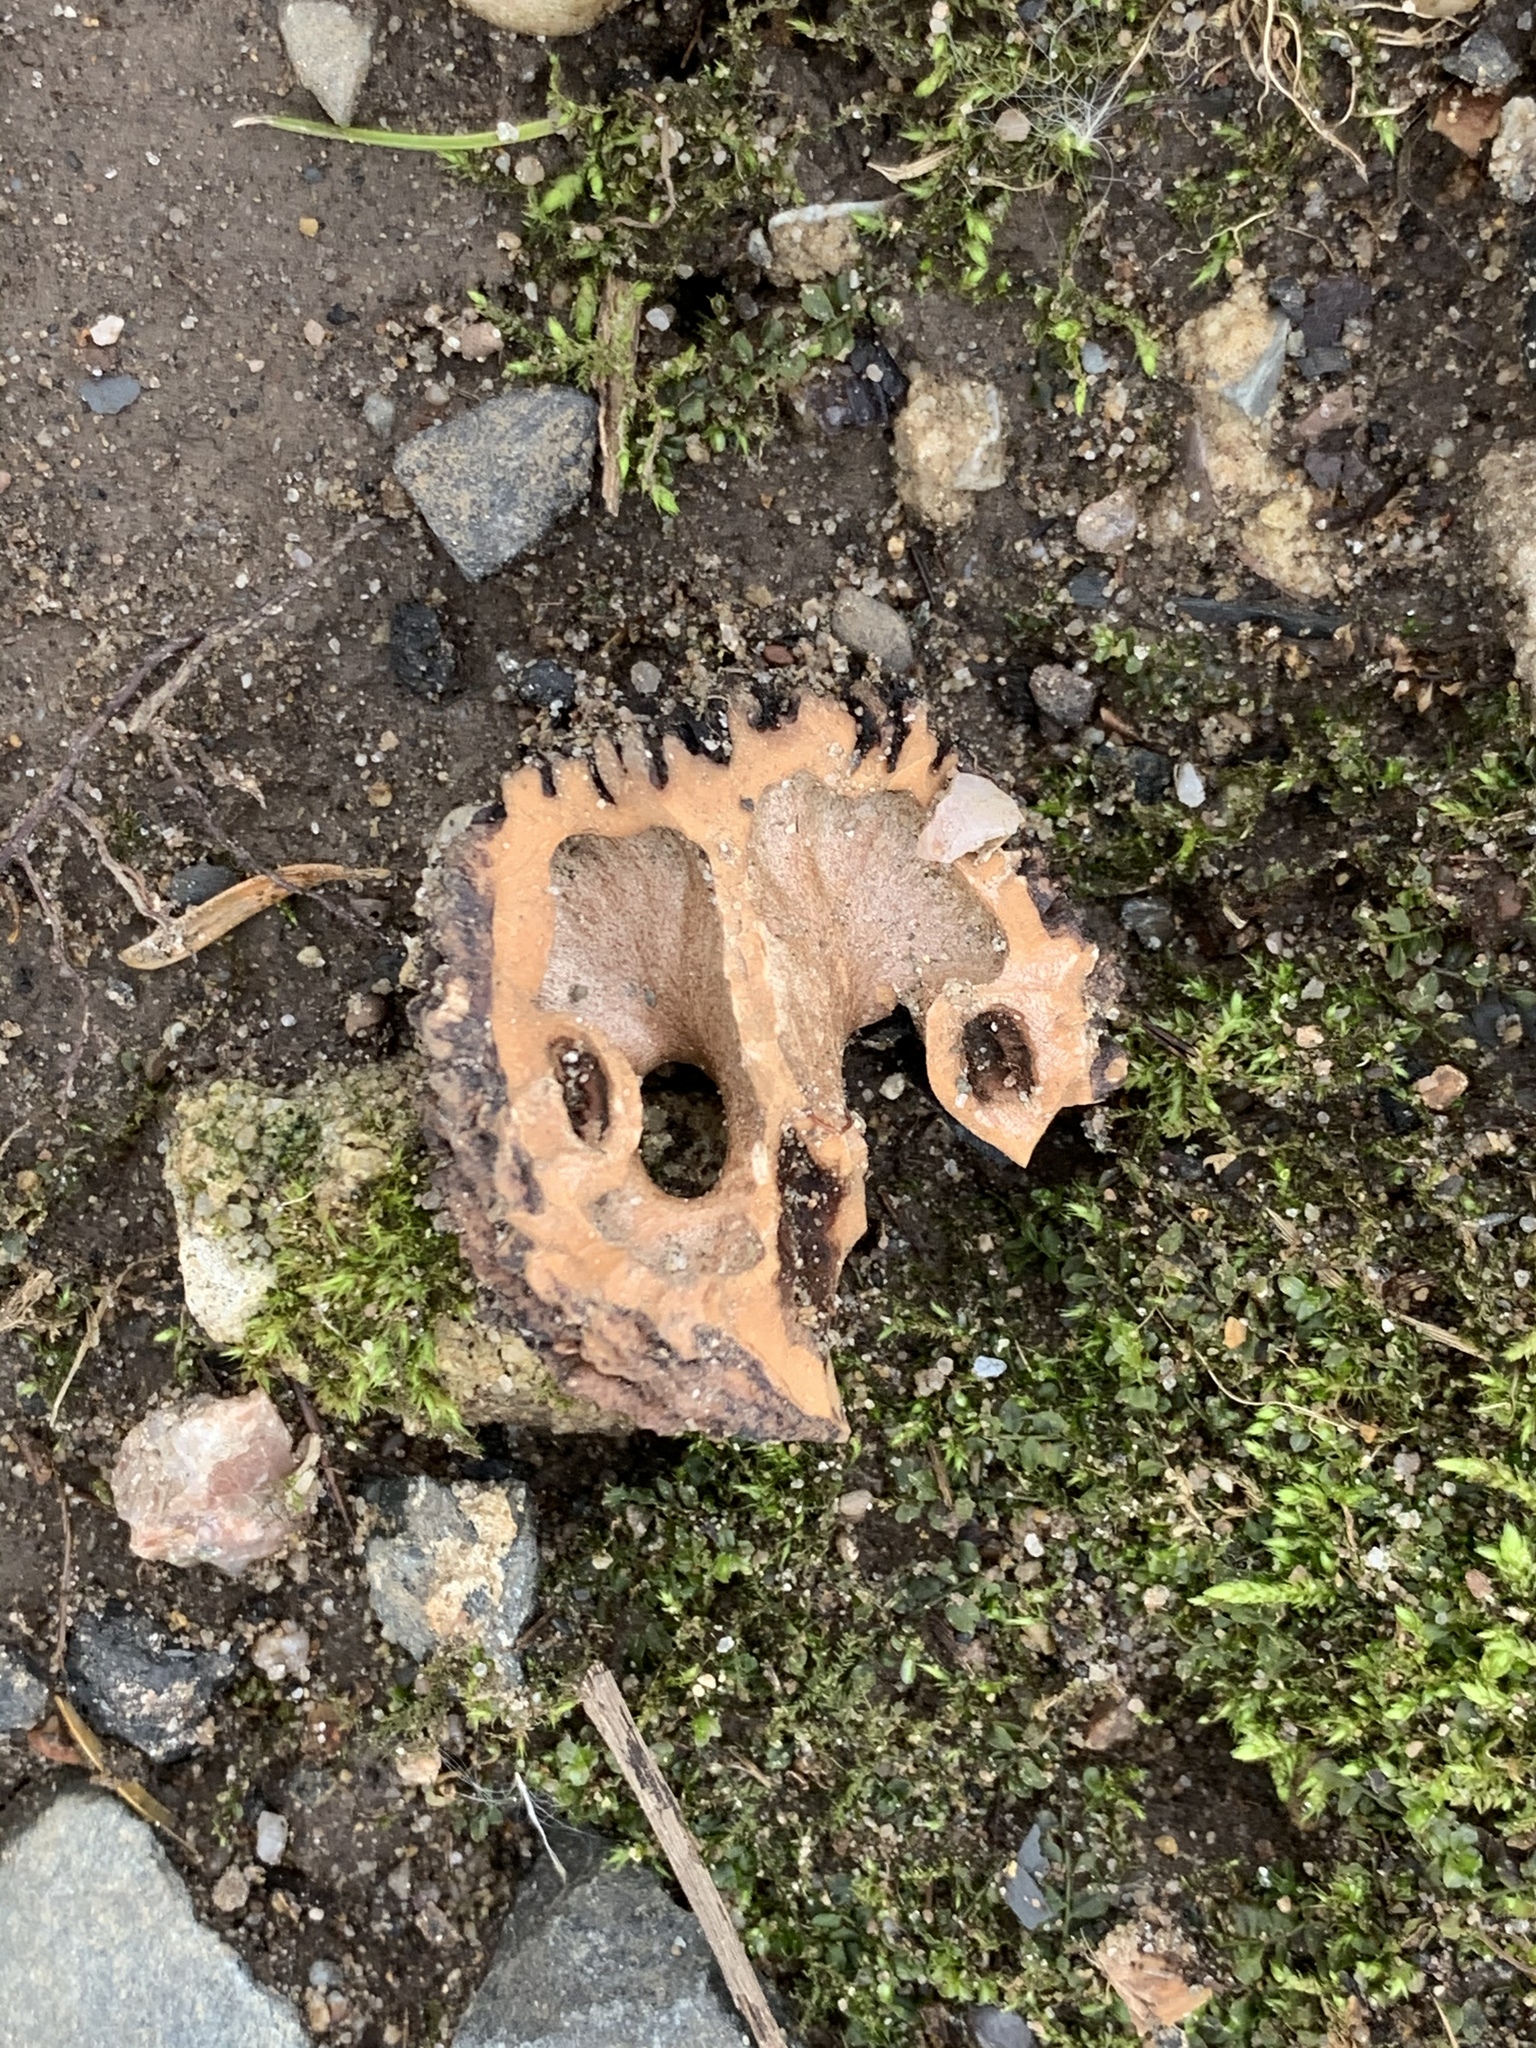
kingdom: Plantae
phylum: Tracheophyta
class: Magnoliopsida
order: Fagales
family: Juglandaceae
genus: Juglans
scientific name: Juglans nigra
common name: Black walnut
